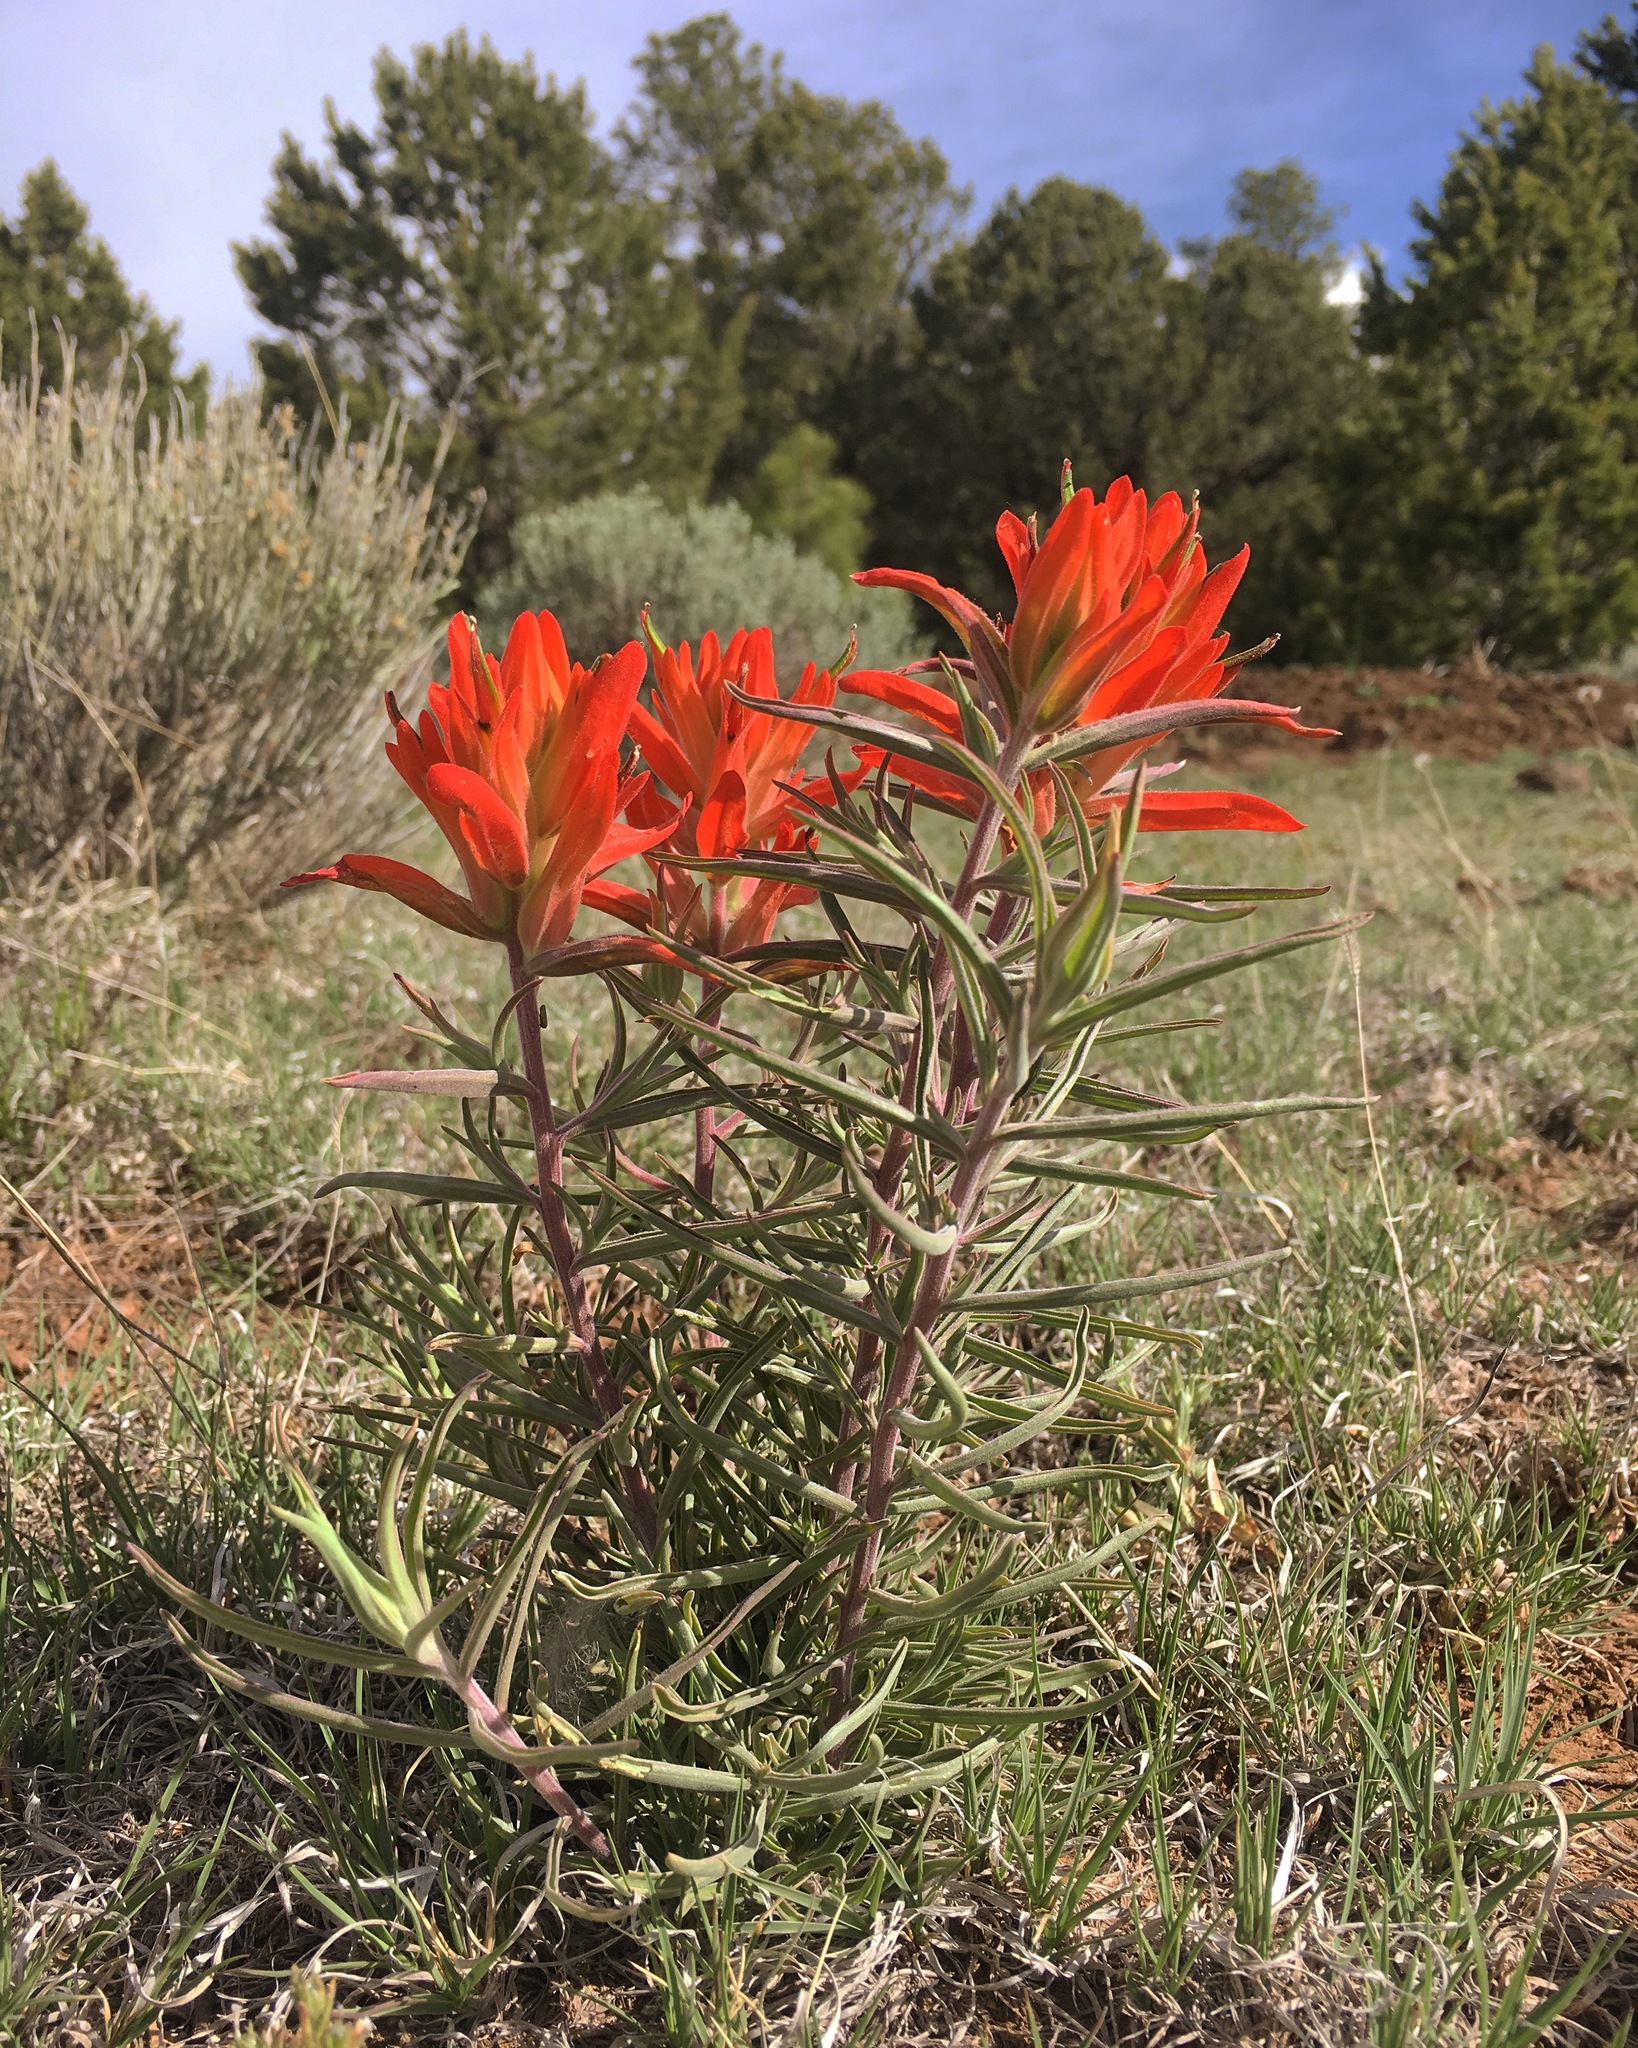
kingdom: Plantae
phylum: Tracheophyta
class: Magnoliopsida
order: Lamiales
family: Orobanchaceae
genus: Castilleja
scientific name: Castilleja integra
